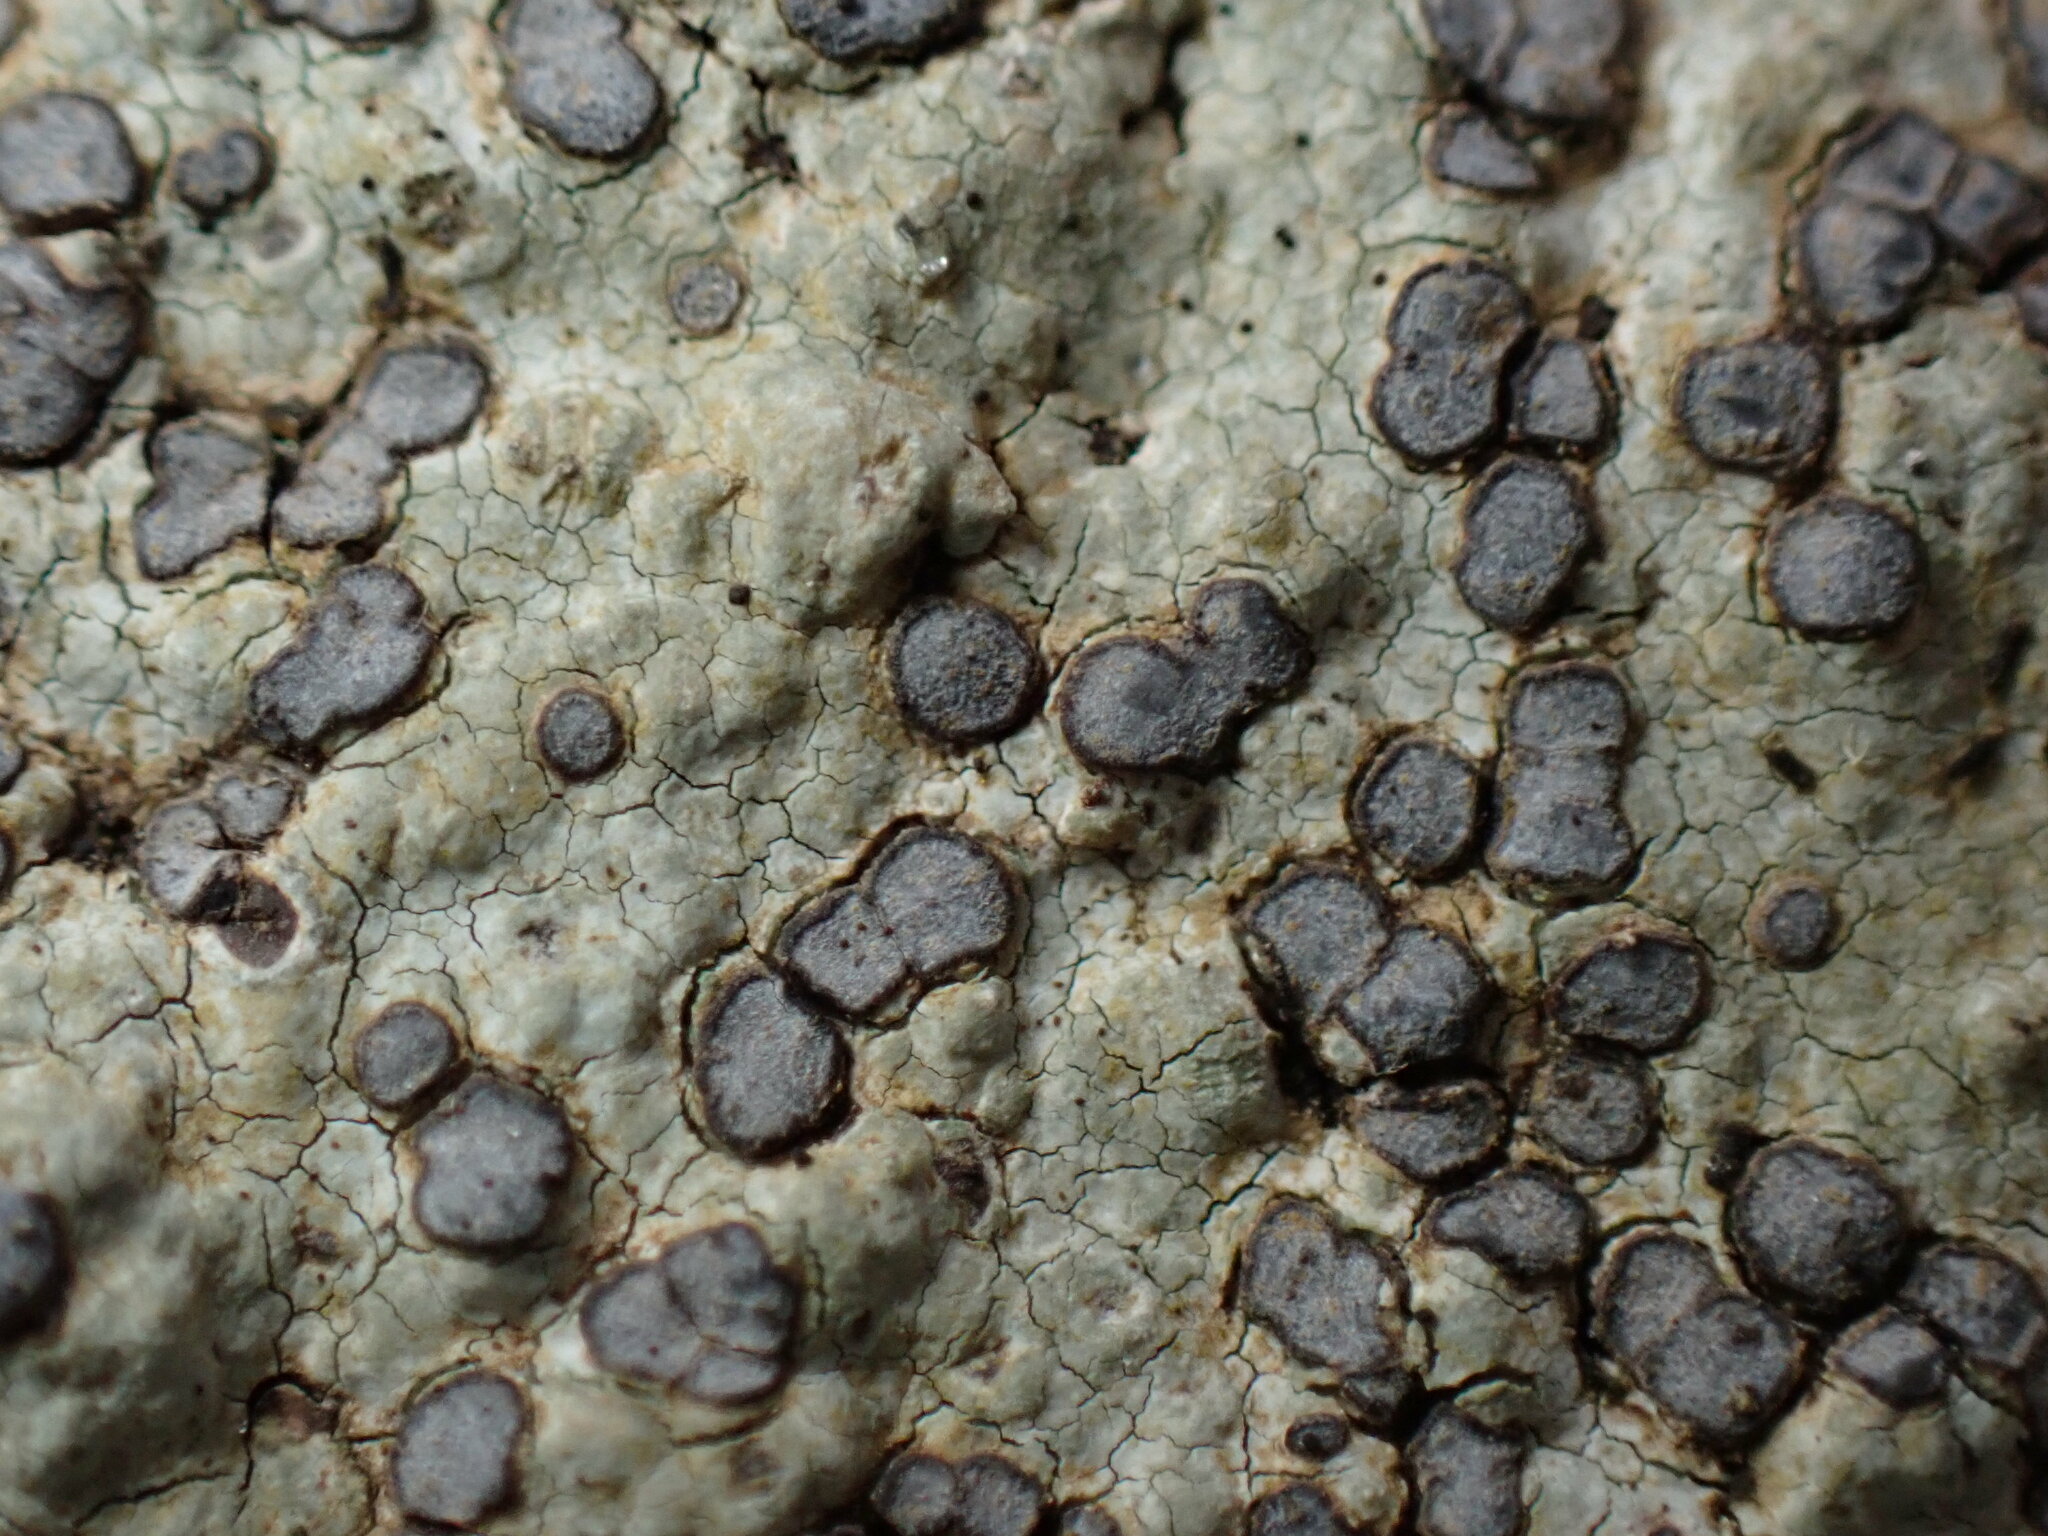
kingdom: Fungi
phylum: Ascomycota
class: Lecanoromycetes
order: Lecideales
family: Lecideaceae
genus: Porpidia
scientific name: Porpidia albocaerulescens
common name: Smokey-eyed boulder lichen
